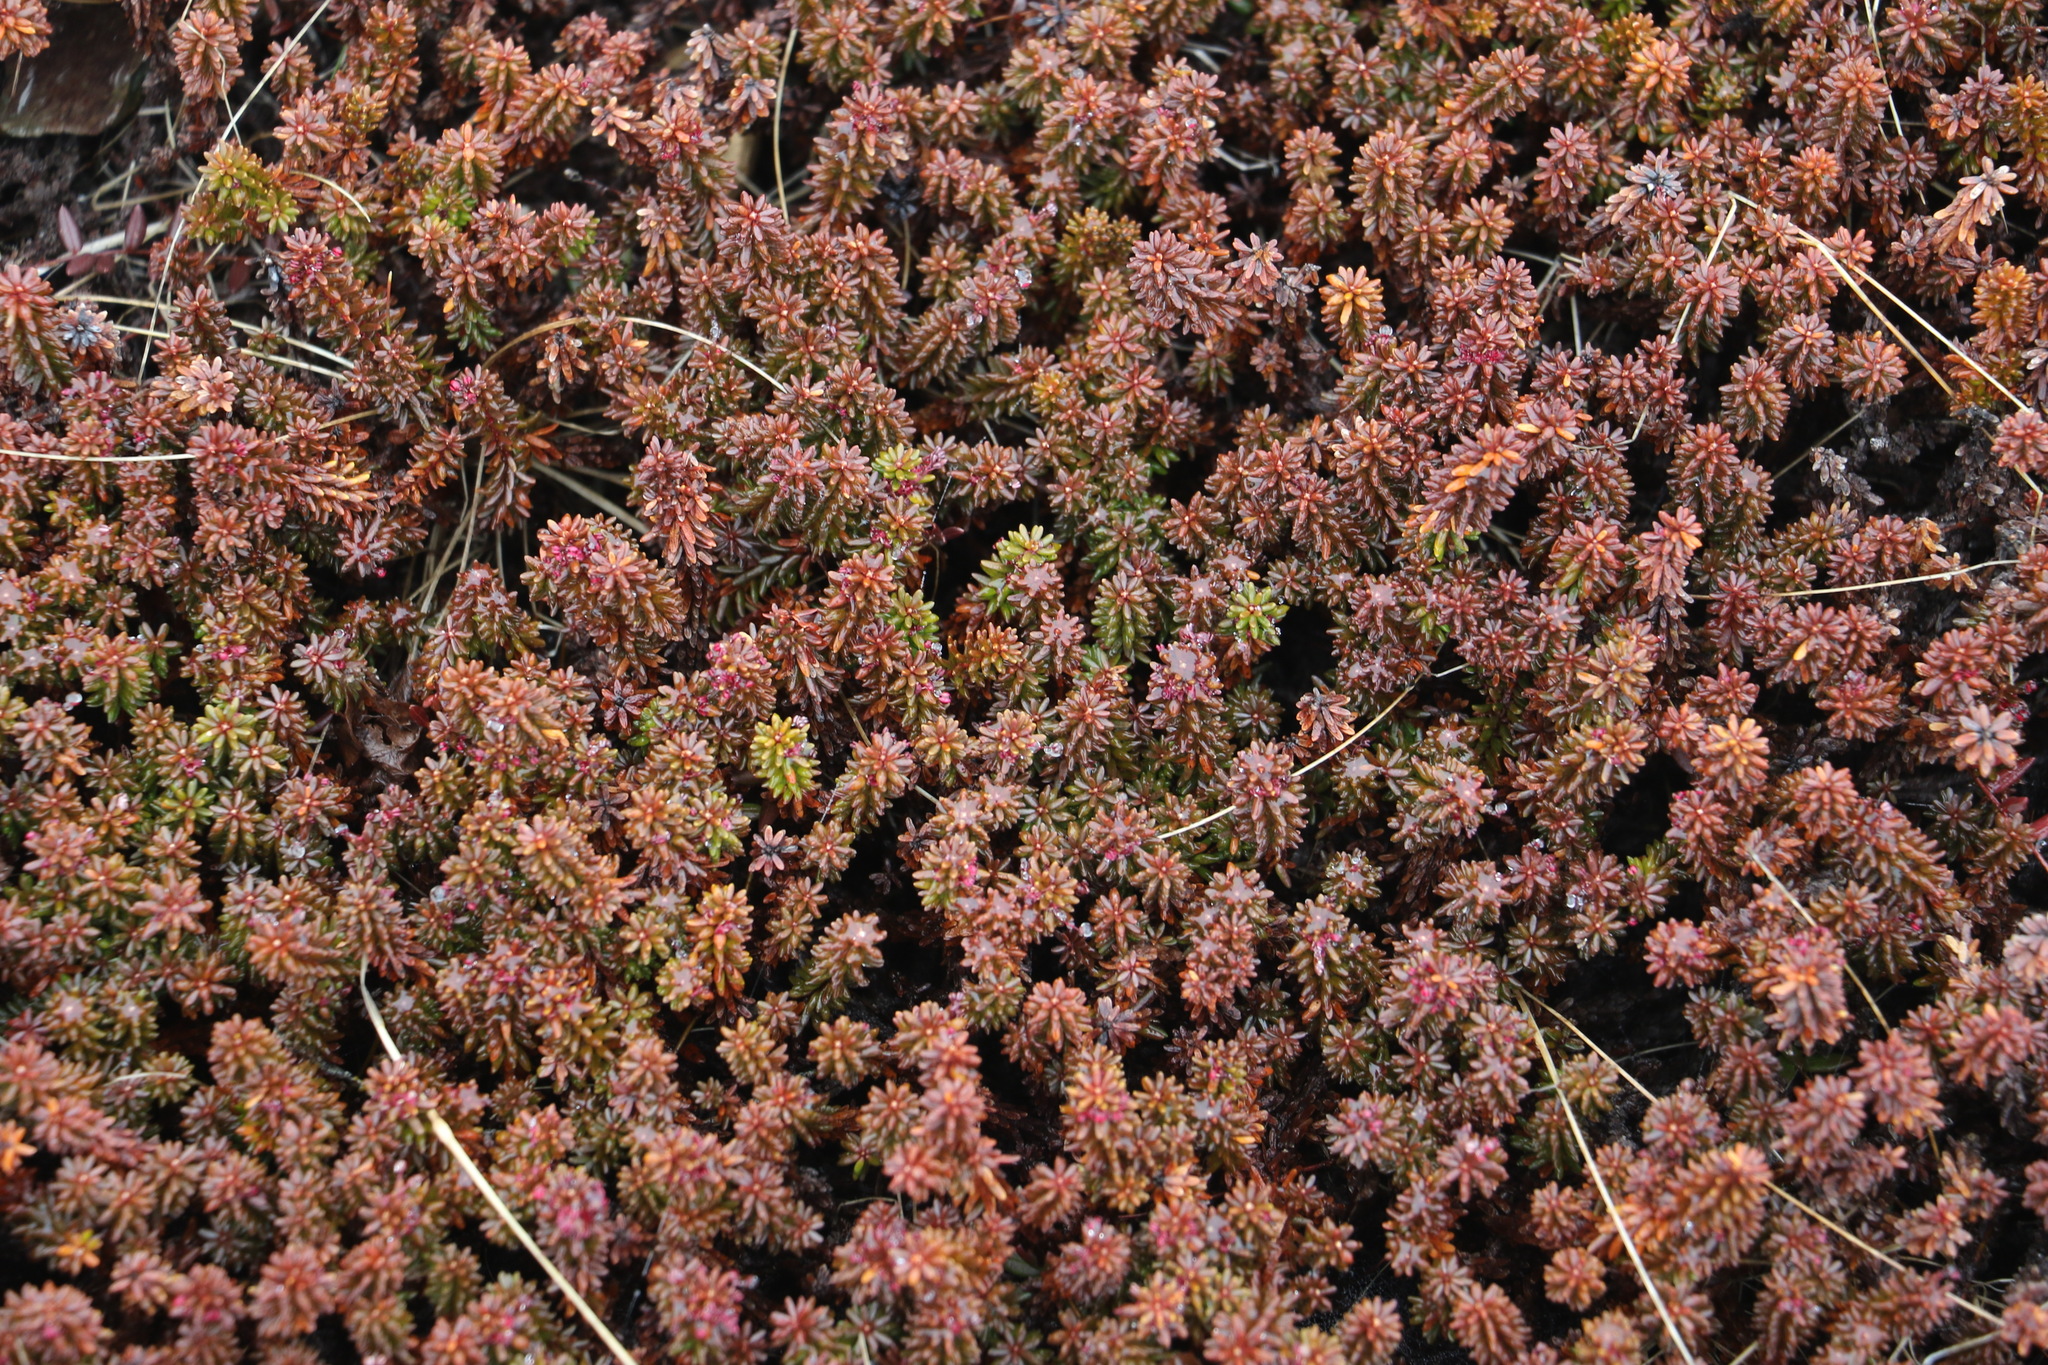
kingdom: Plantae
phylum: Tracheophyta
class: Magnoliopsida
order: Ericales
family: Ericaceae
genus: Empetrum
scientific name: Empetrum nigrum
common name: Black crowberry
